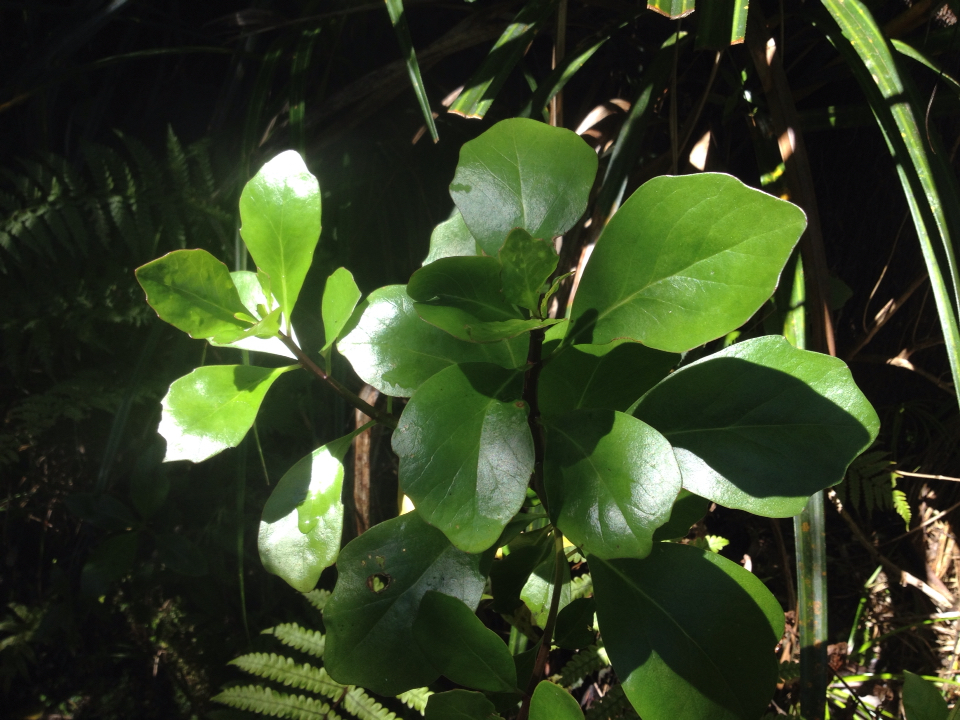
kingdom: Plantae
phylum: Tracheophyta
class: Magnoliopsida
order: Asterales
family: Asteraceae
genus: Brachyglottis
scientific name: Brachyglottis kirkii
